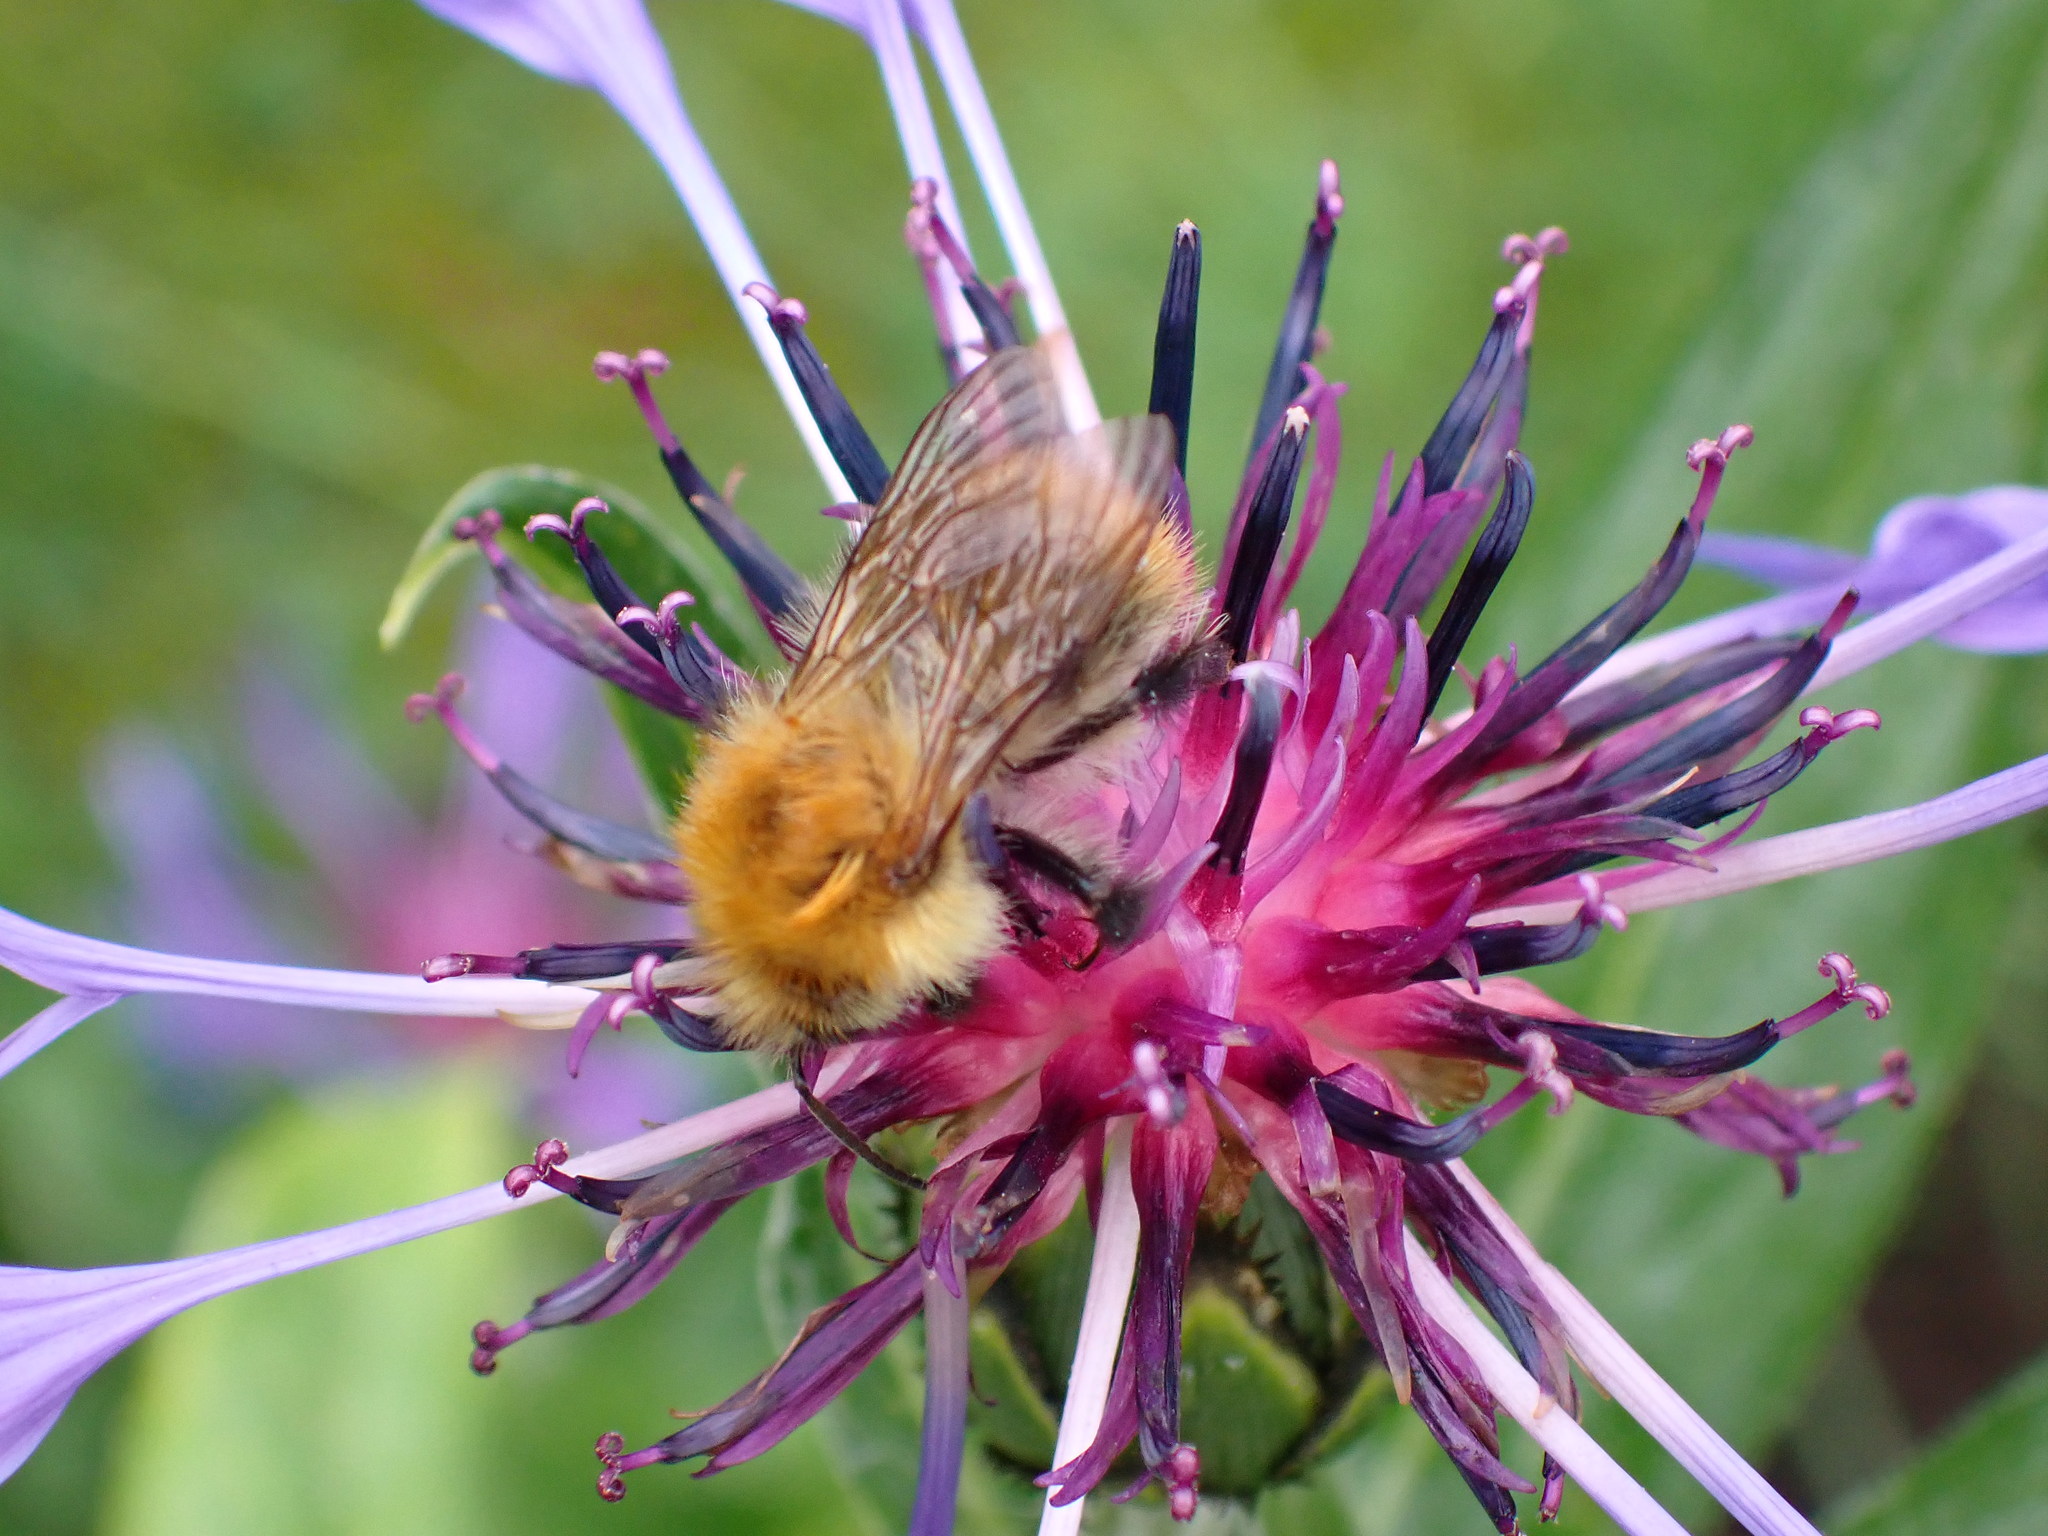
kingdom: Animalia
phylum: Arthropoda
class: Insecta
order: Hymenoptera
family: Apidae
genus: Bombus
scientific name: Bombus pascuorum
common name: Common carder bee
